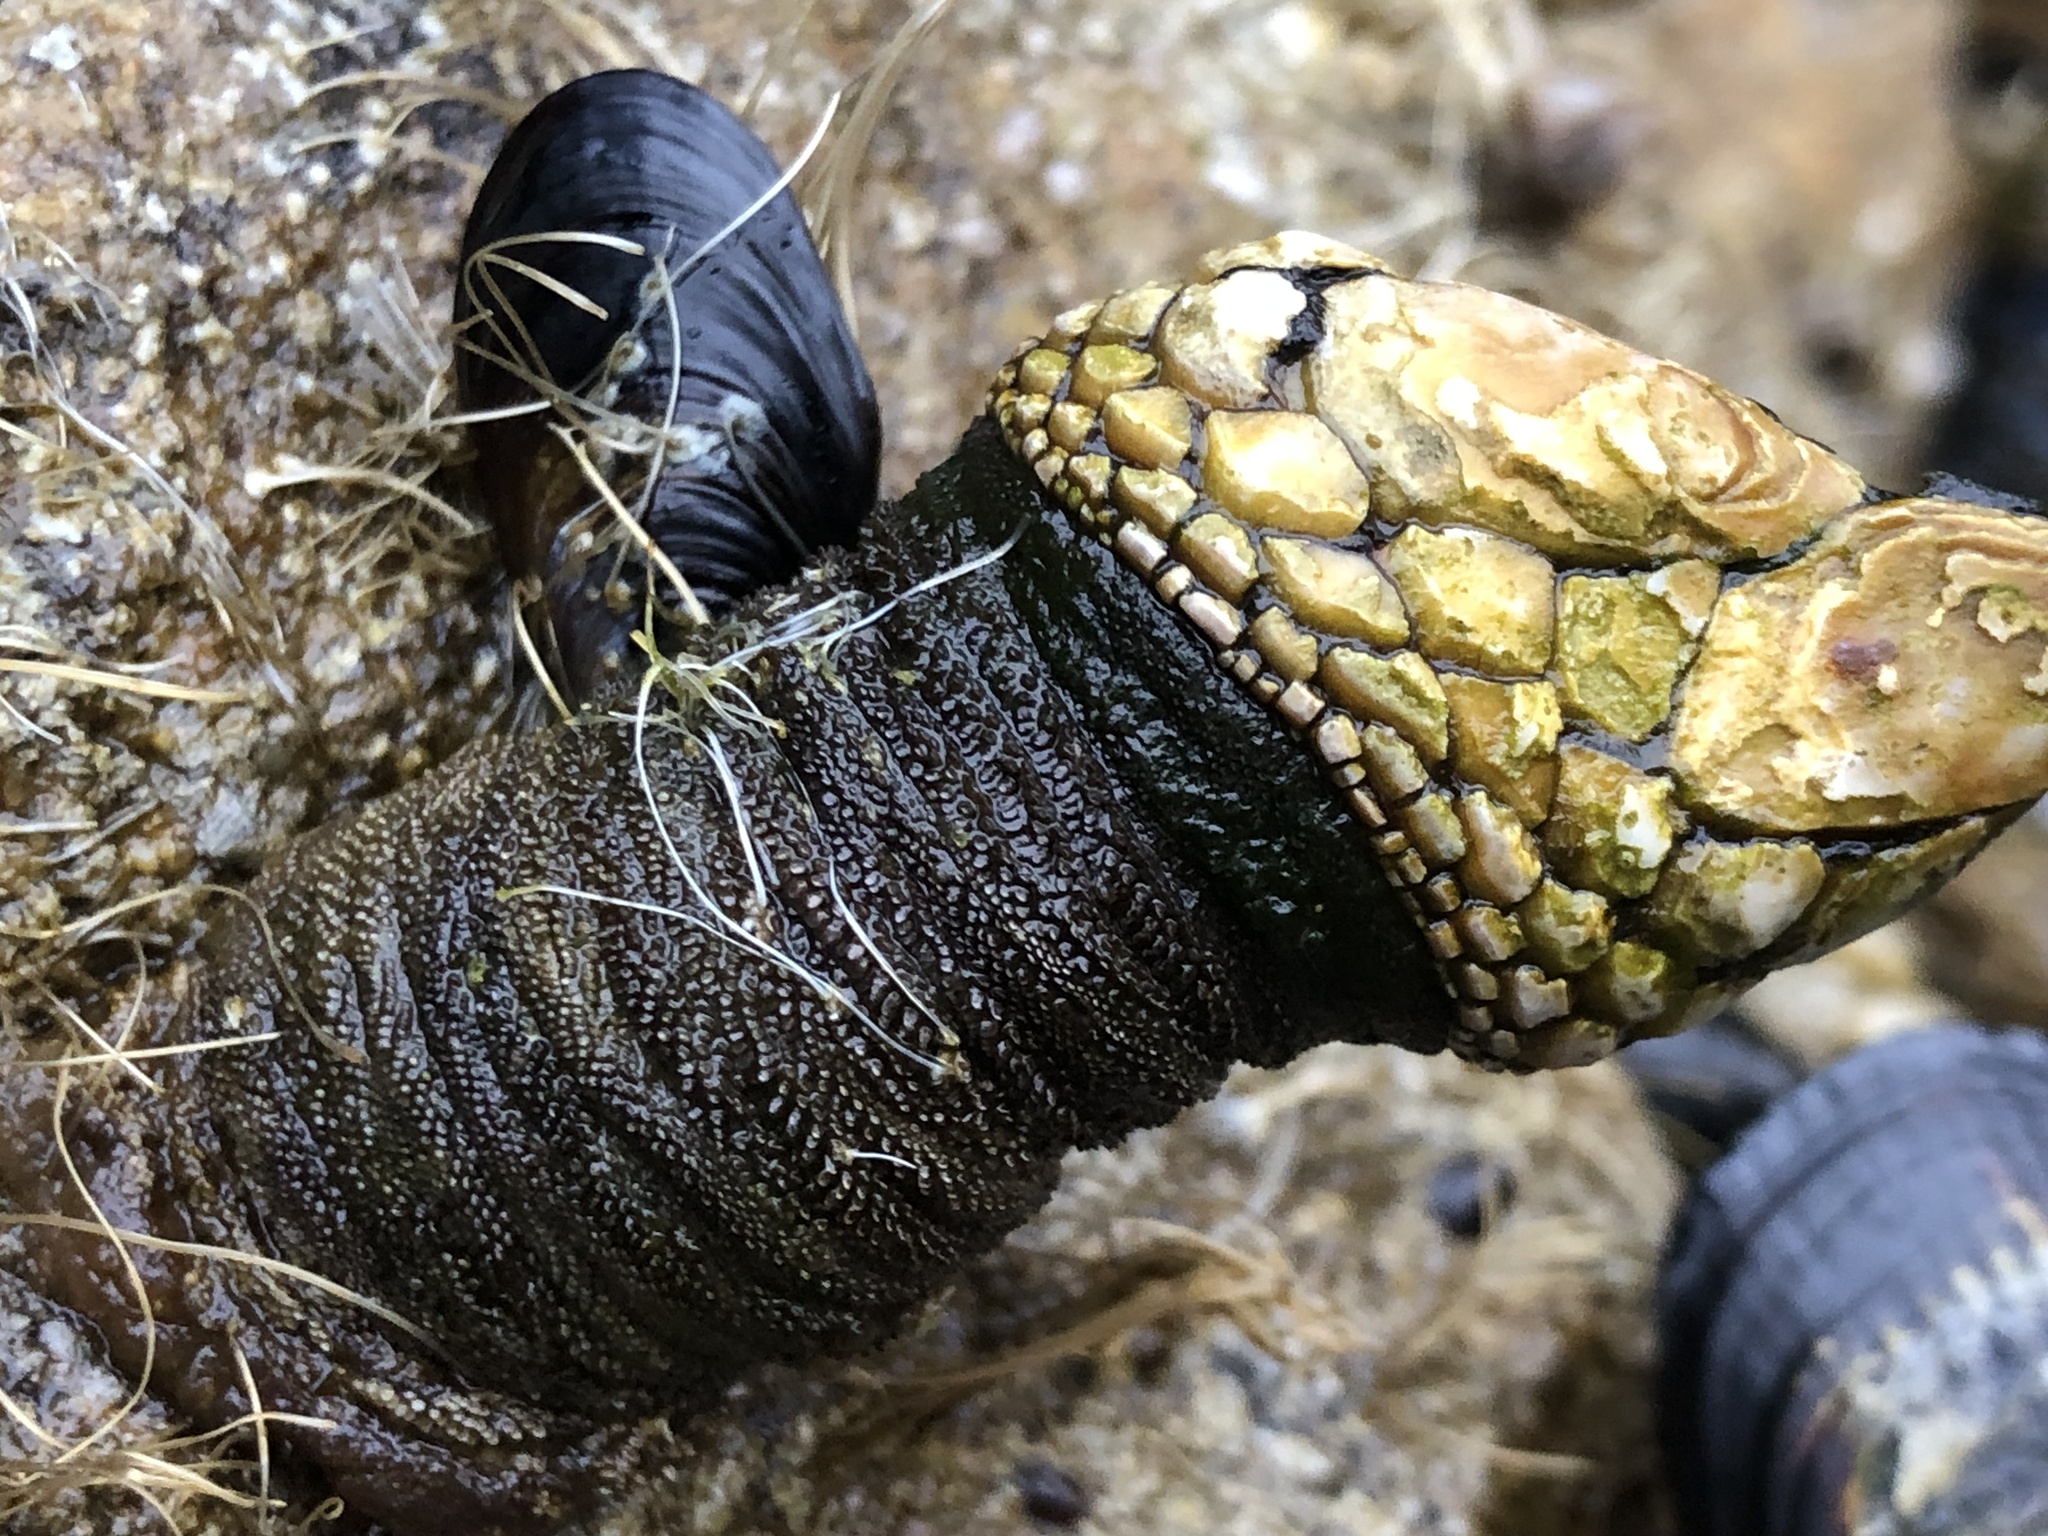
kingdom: Animalia
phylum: Arthropoda
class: Maxillopoda
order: Pedunculata
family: Pollicipedidae
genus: Pollicipes
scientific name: Pollicipes polymerus
